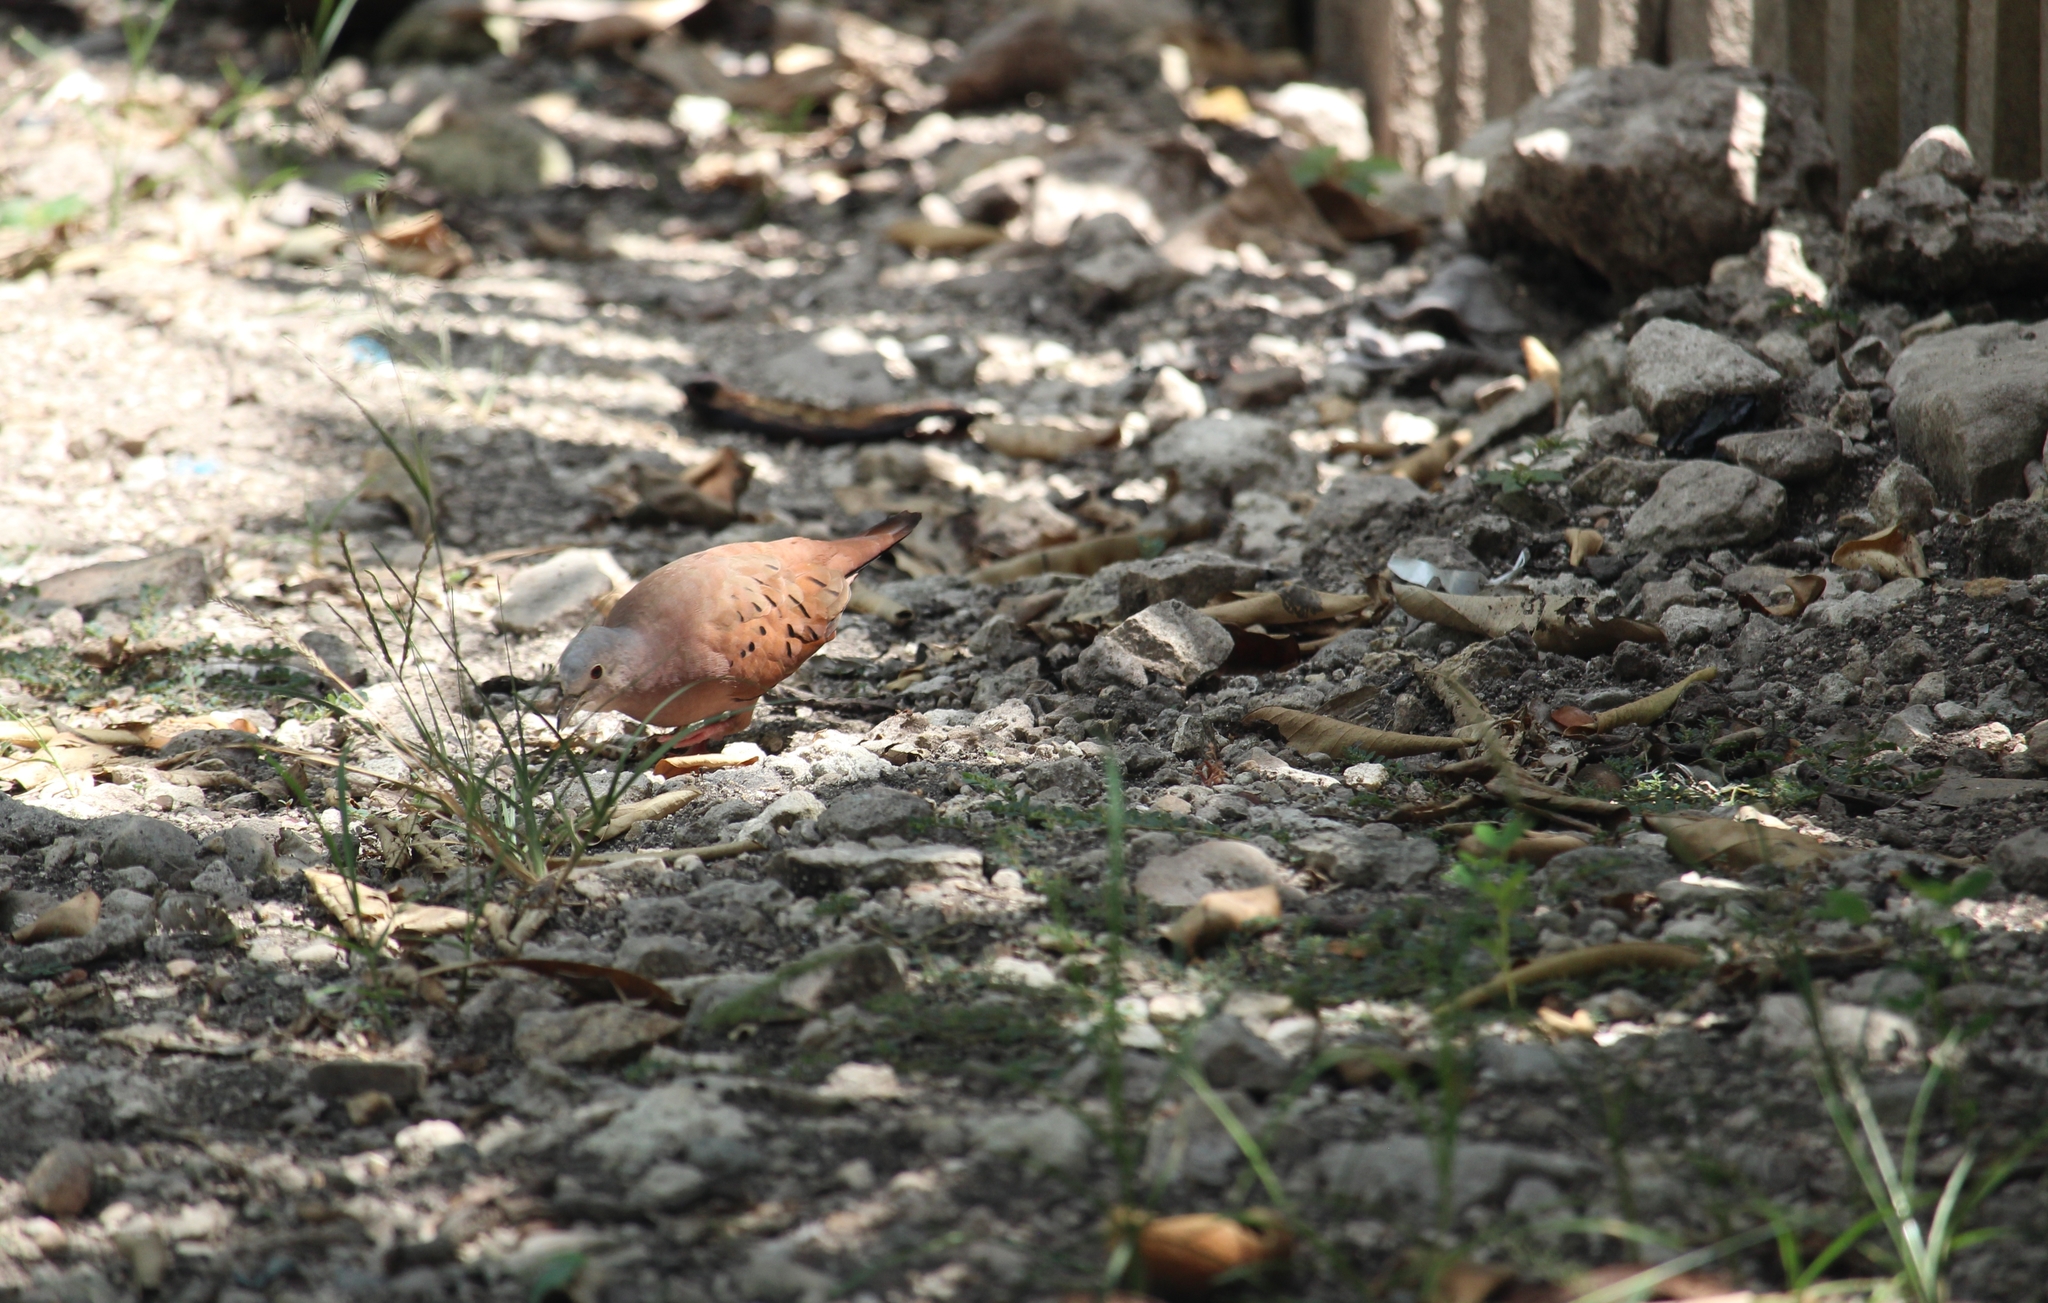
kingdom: Animalia
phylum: Chordata
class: Aves
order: Columbiformes
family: Columbidae
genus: Columbina
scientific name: Columbina talpacoti
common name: Ruddy ground dove
